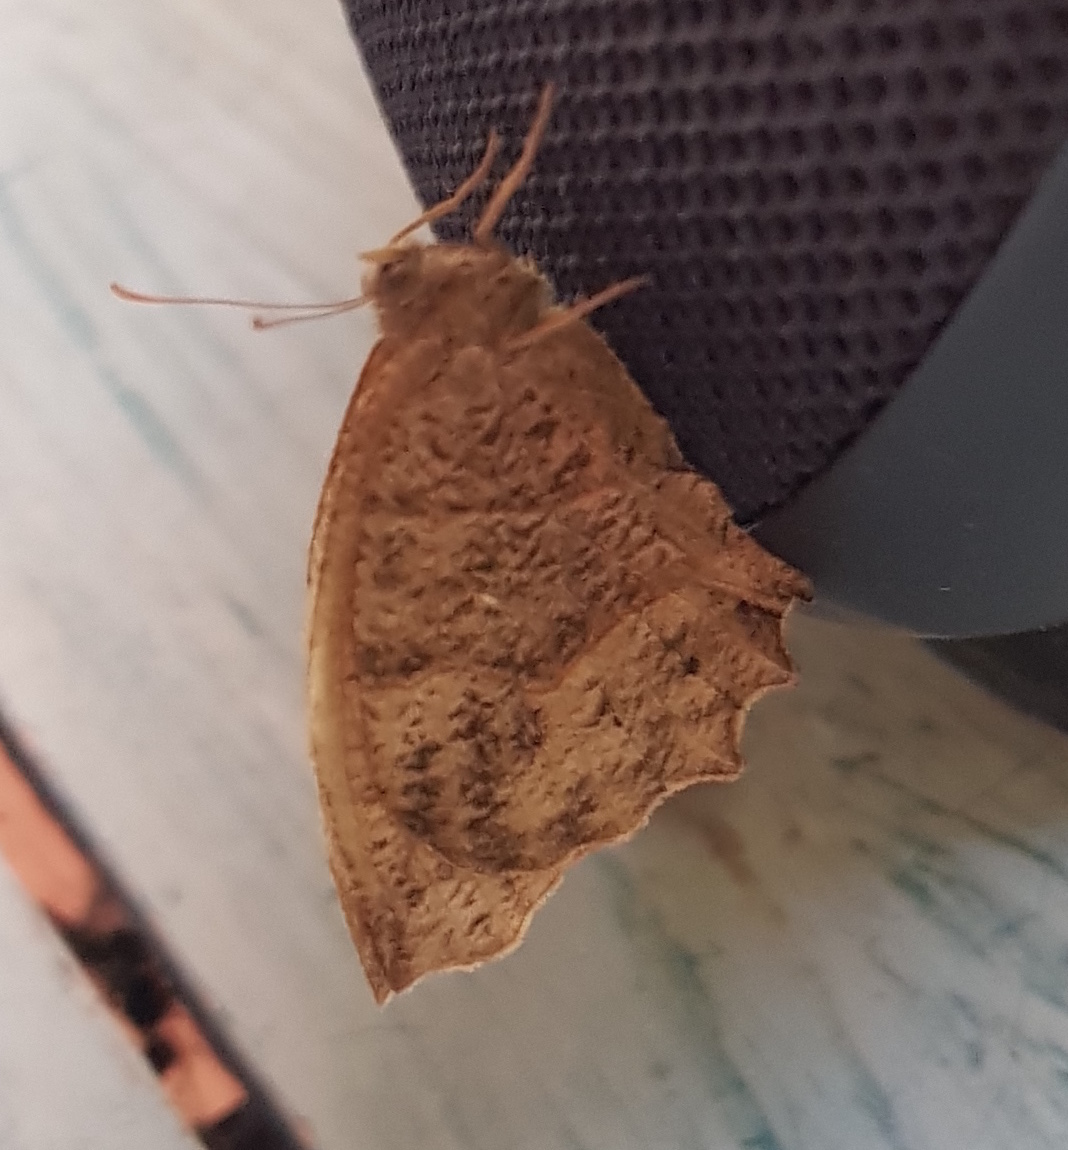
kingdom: Animalia
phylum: Arthropoda
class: Insecta
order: Lepidoptera
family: Nymphalidae
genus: Pindis
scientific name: Pindis squamistriga
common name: Variable satyr
